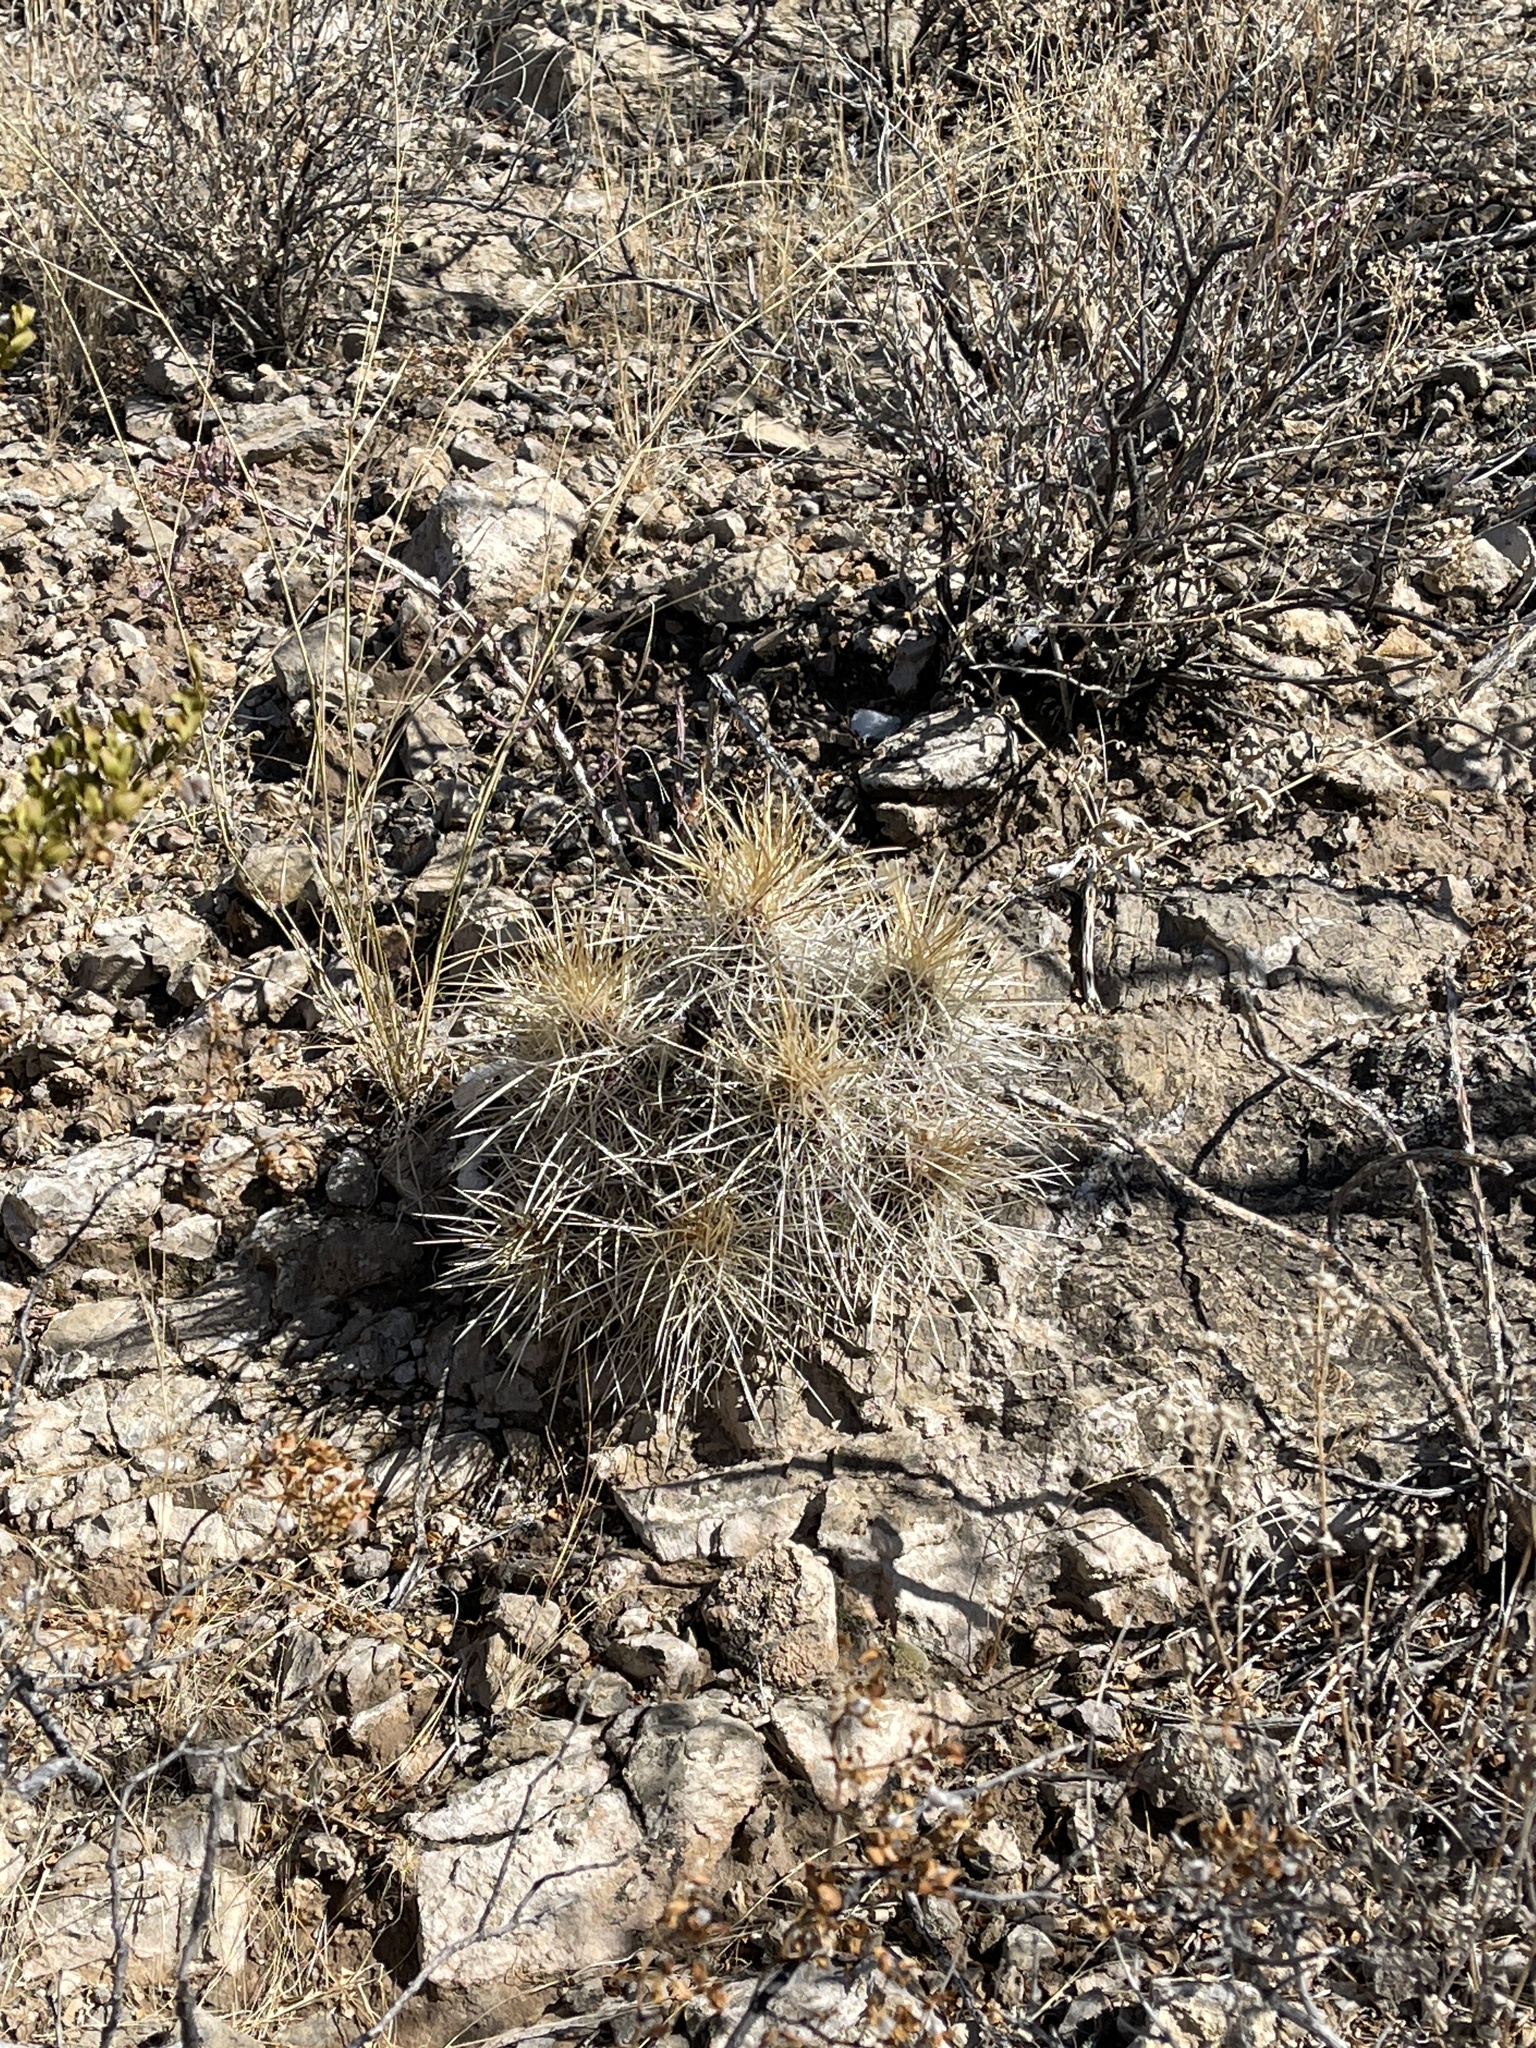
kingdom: Plantae
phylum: Tracheophyta
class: Magnoliopsida
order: Caryophyllales
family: Cactaceae
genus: Echinocereus
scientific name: Echinocereus stramineus
